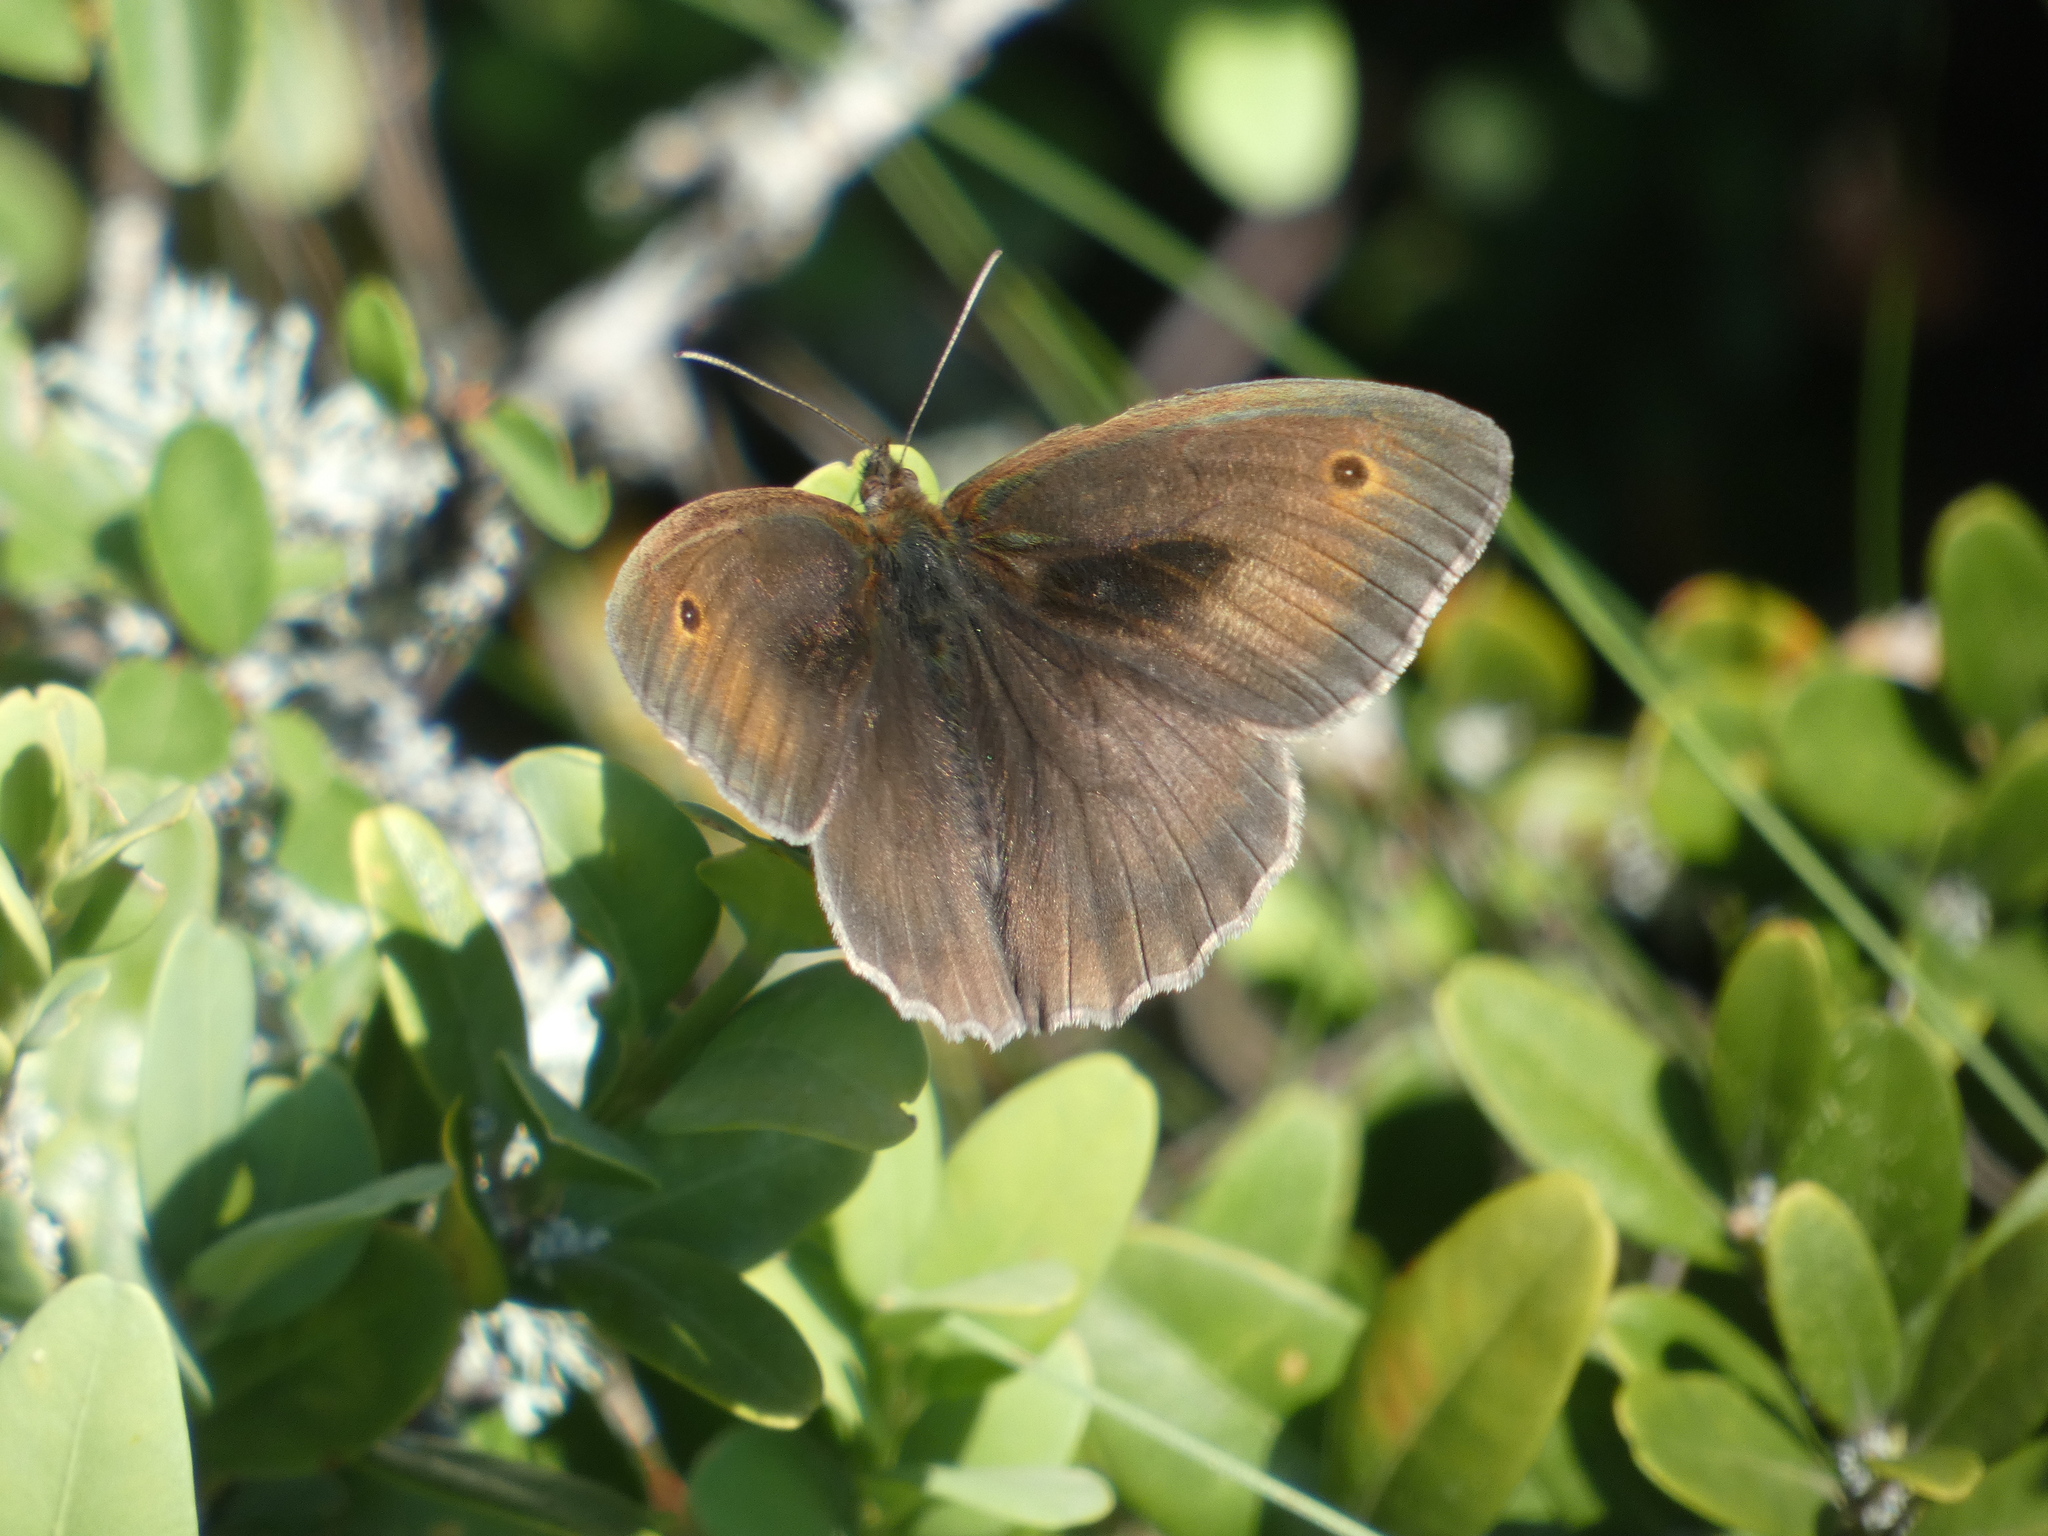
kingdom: Animalia
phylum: Arthropoda
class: Insecta
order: Lepidoptera
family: Nymphalidae
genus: Maniola
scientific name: Maniola jurtina
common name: Meadow brown
